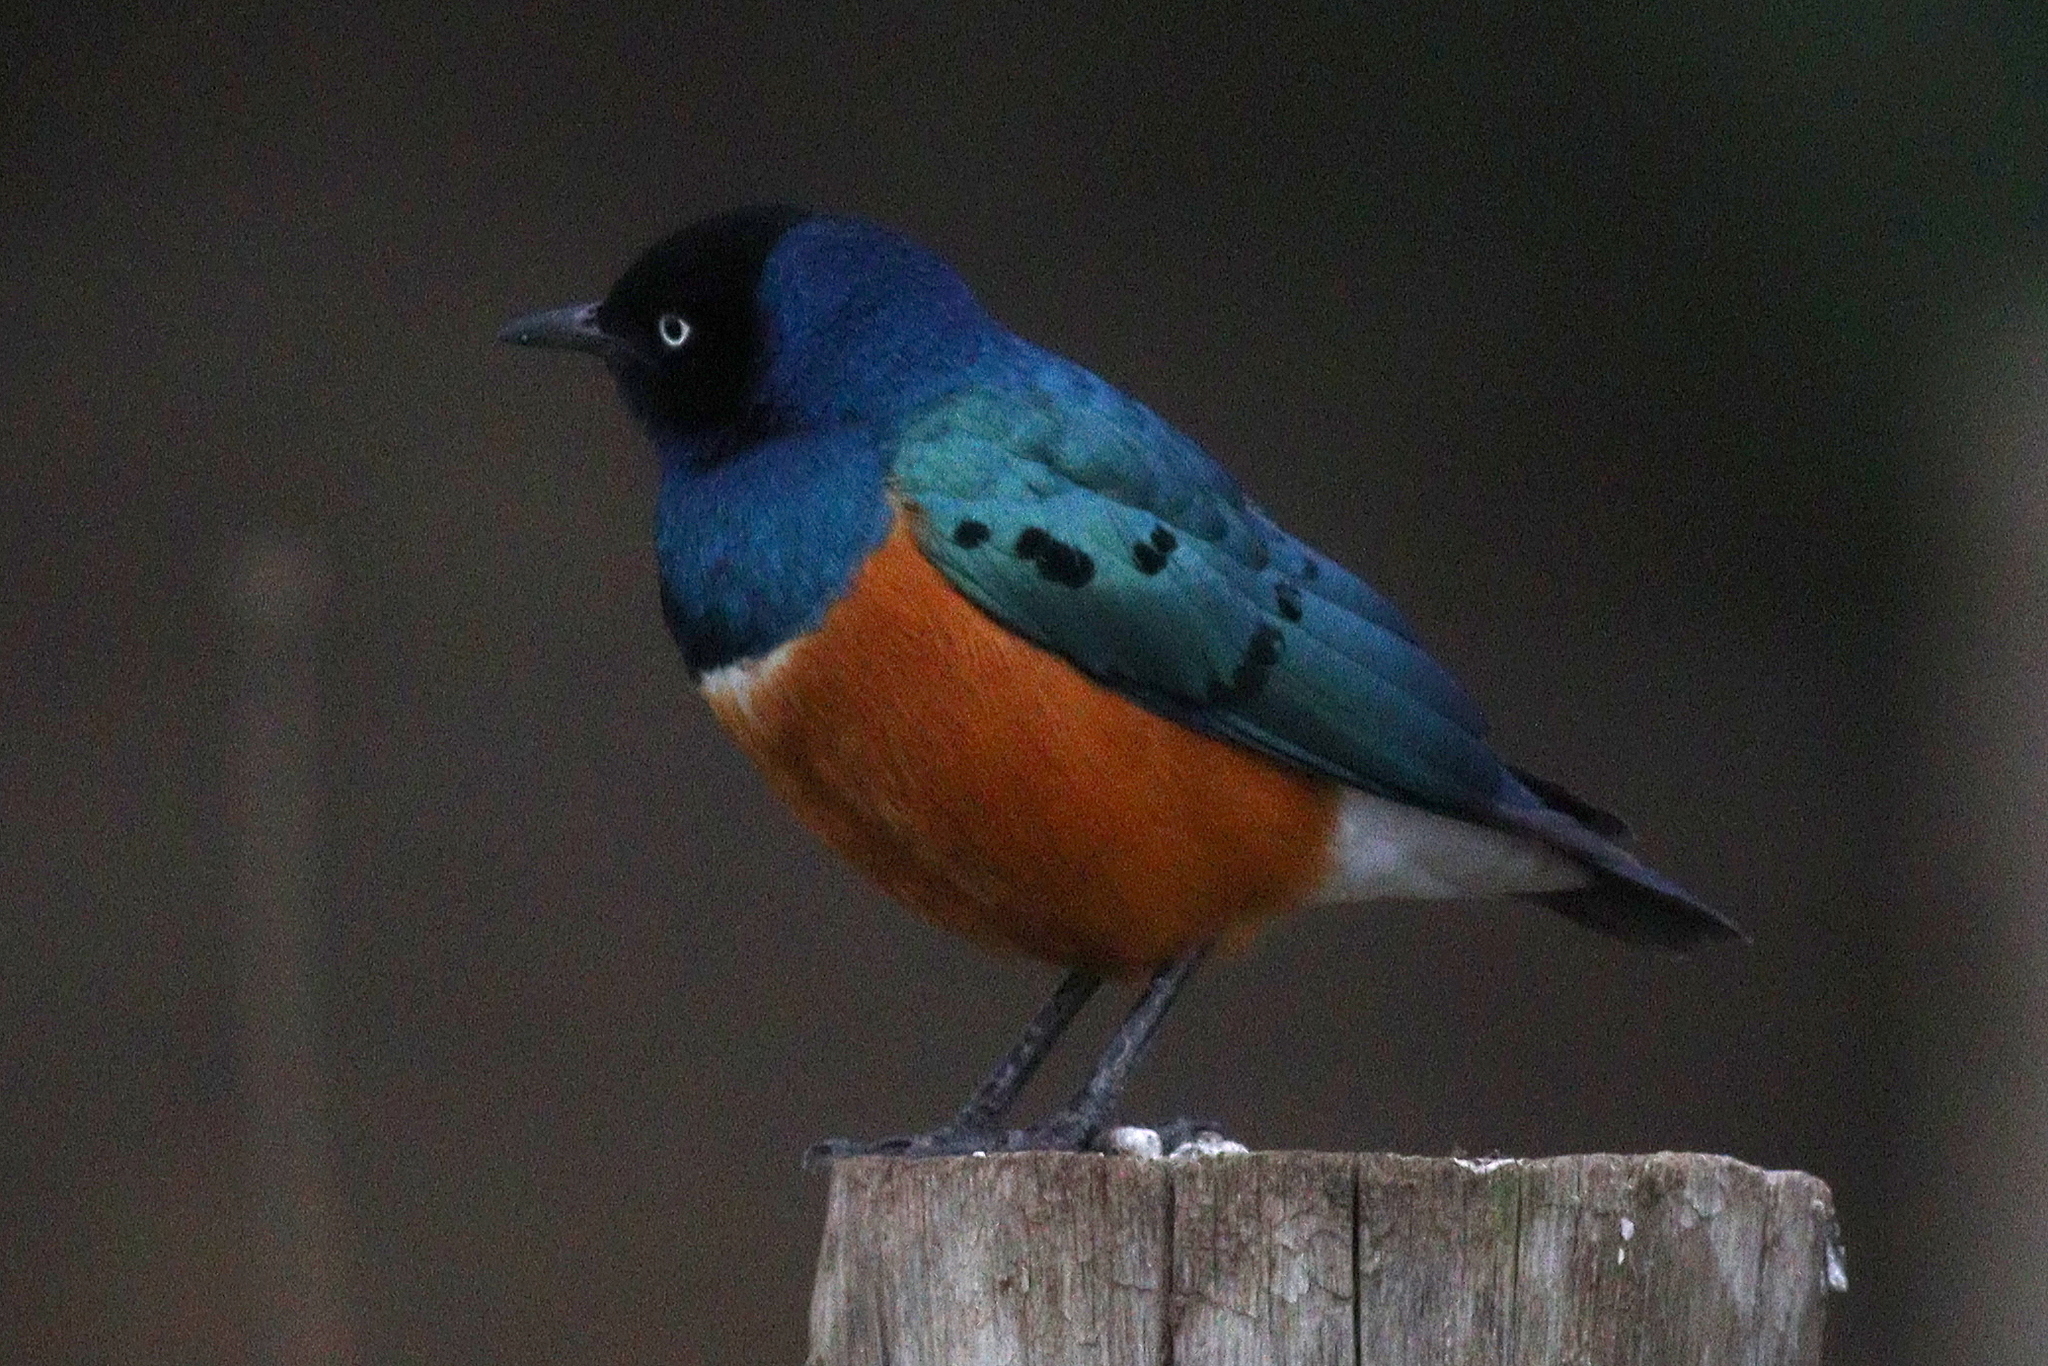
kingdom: Animalia
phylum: Chordata
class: Aves
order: Passeriformes
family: Sturnidae
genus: Lamprotornis
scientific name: Lamprotornis superbus
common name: Superb starling
